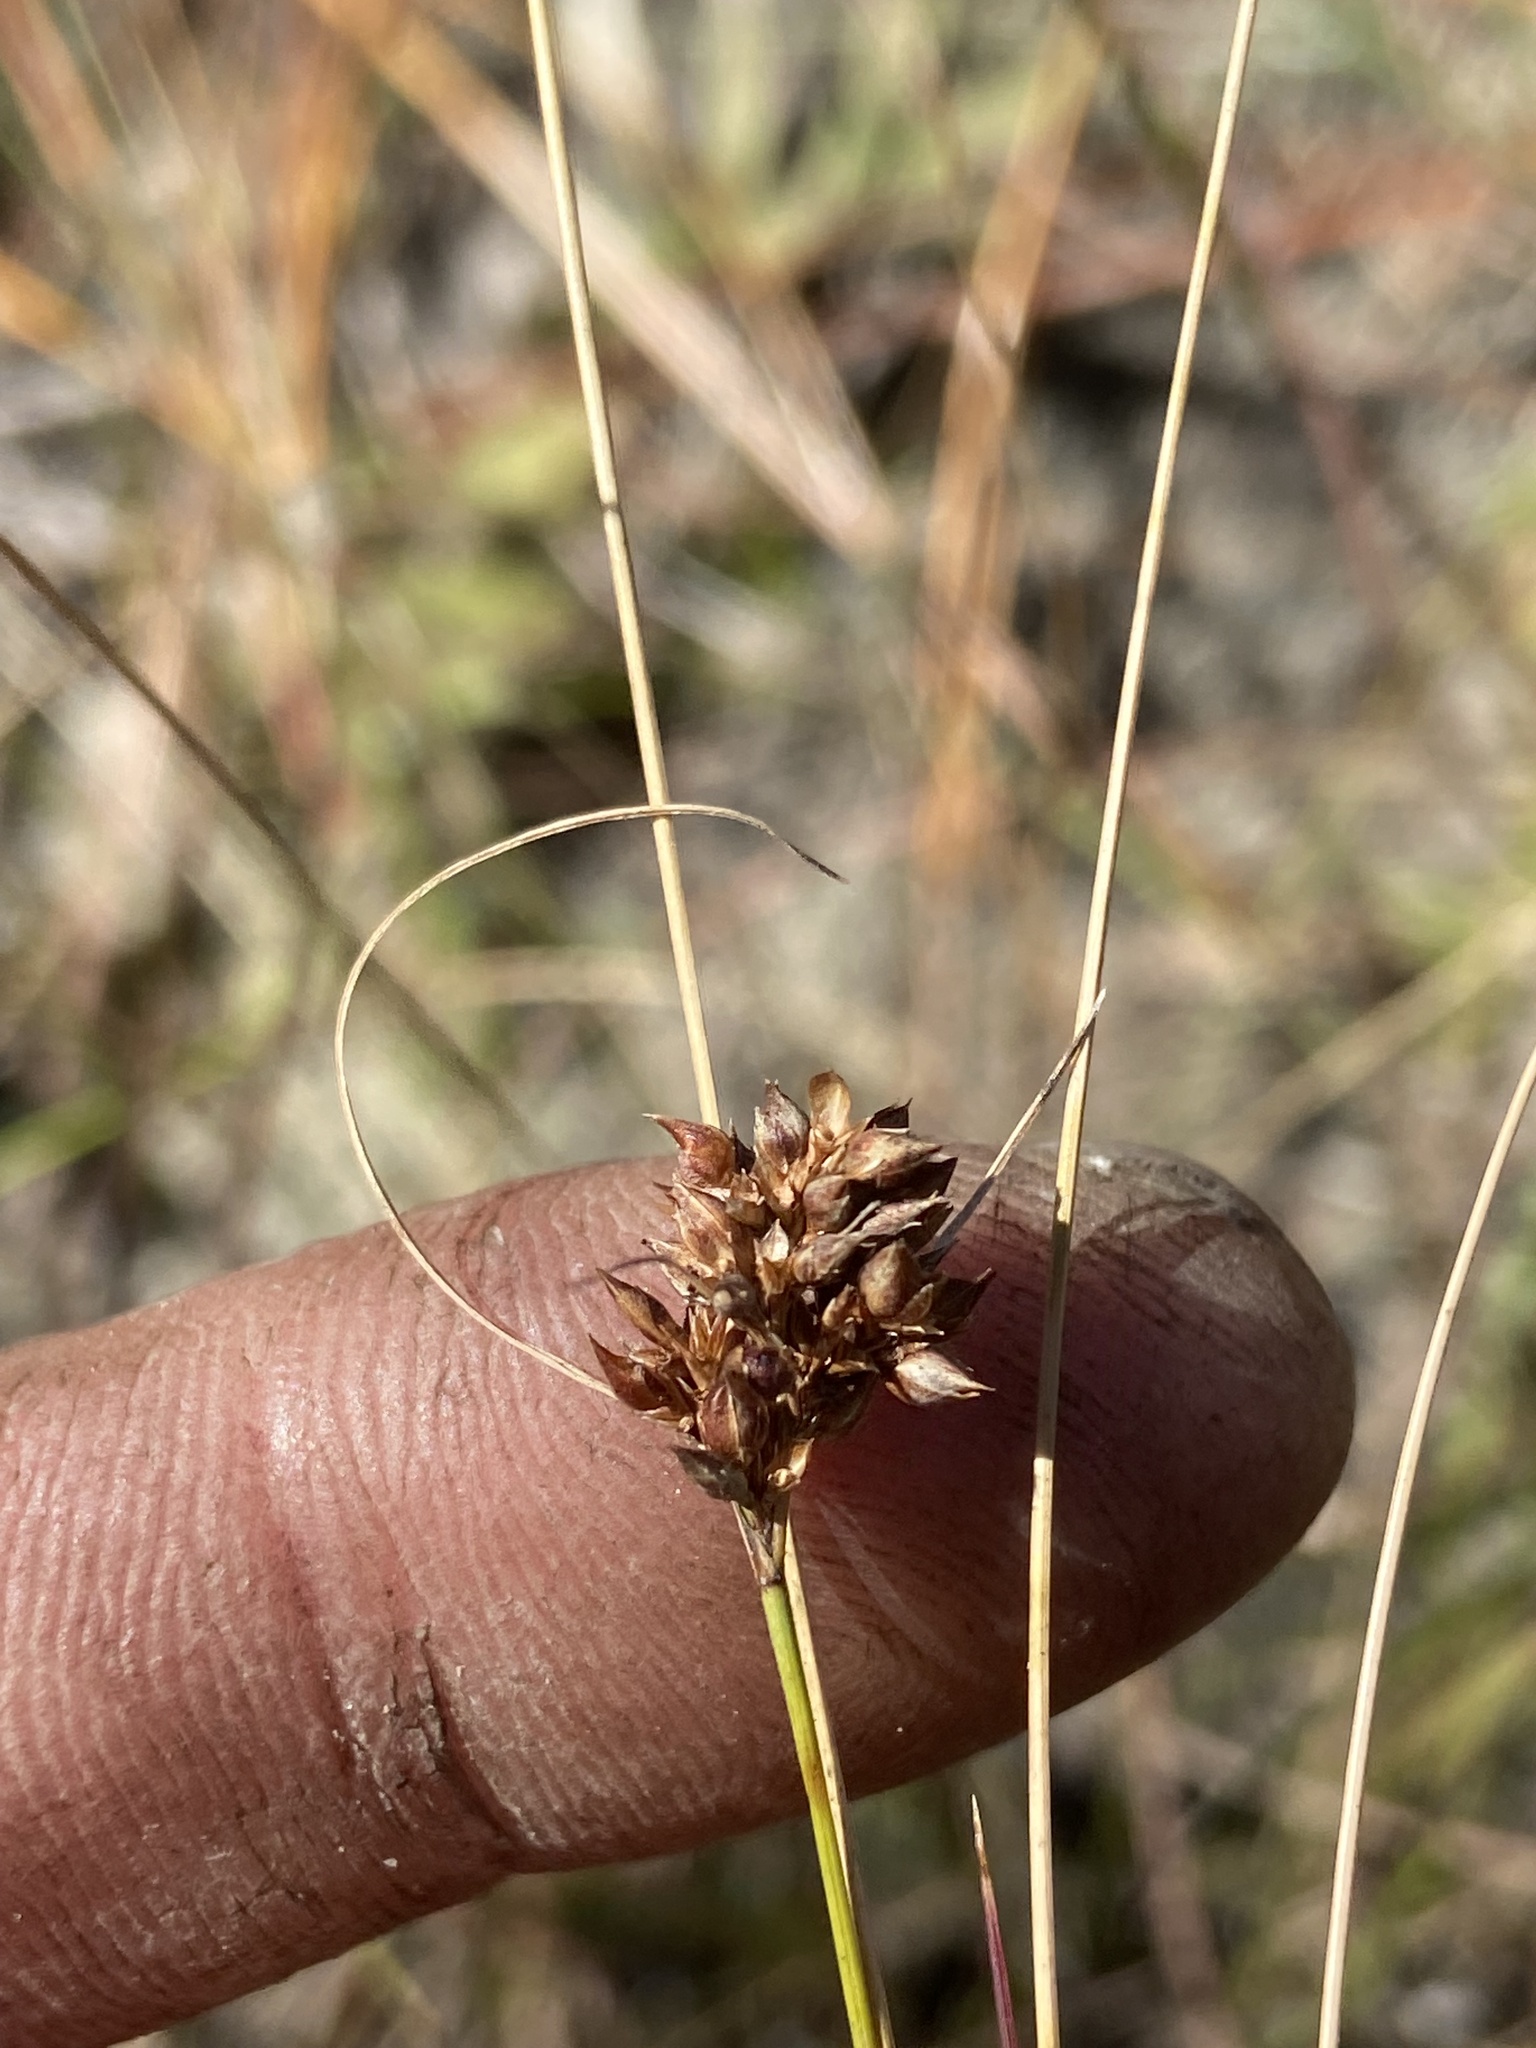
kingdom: Plantae
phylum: Tracheophyta
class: Liliopsida
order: Poales
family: Cyperaceae
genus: Rhynchospora
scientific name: Rhynchospora plumosa
